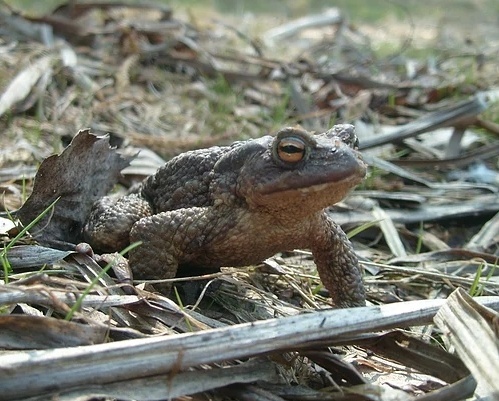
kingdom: Animalia
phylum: Chordata
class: Amphibia
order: Anura
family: Bufonidae
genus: Bufo
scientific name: Bufo bufo
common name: Common toad
